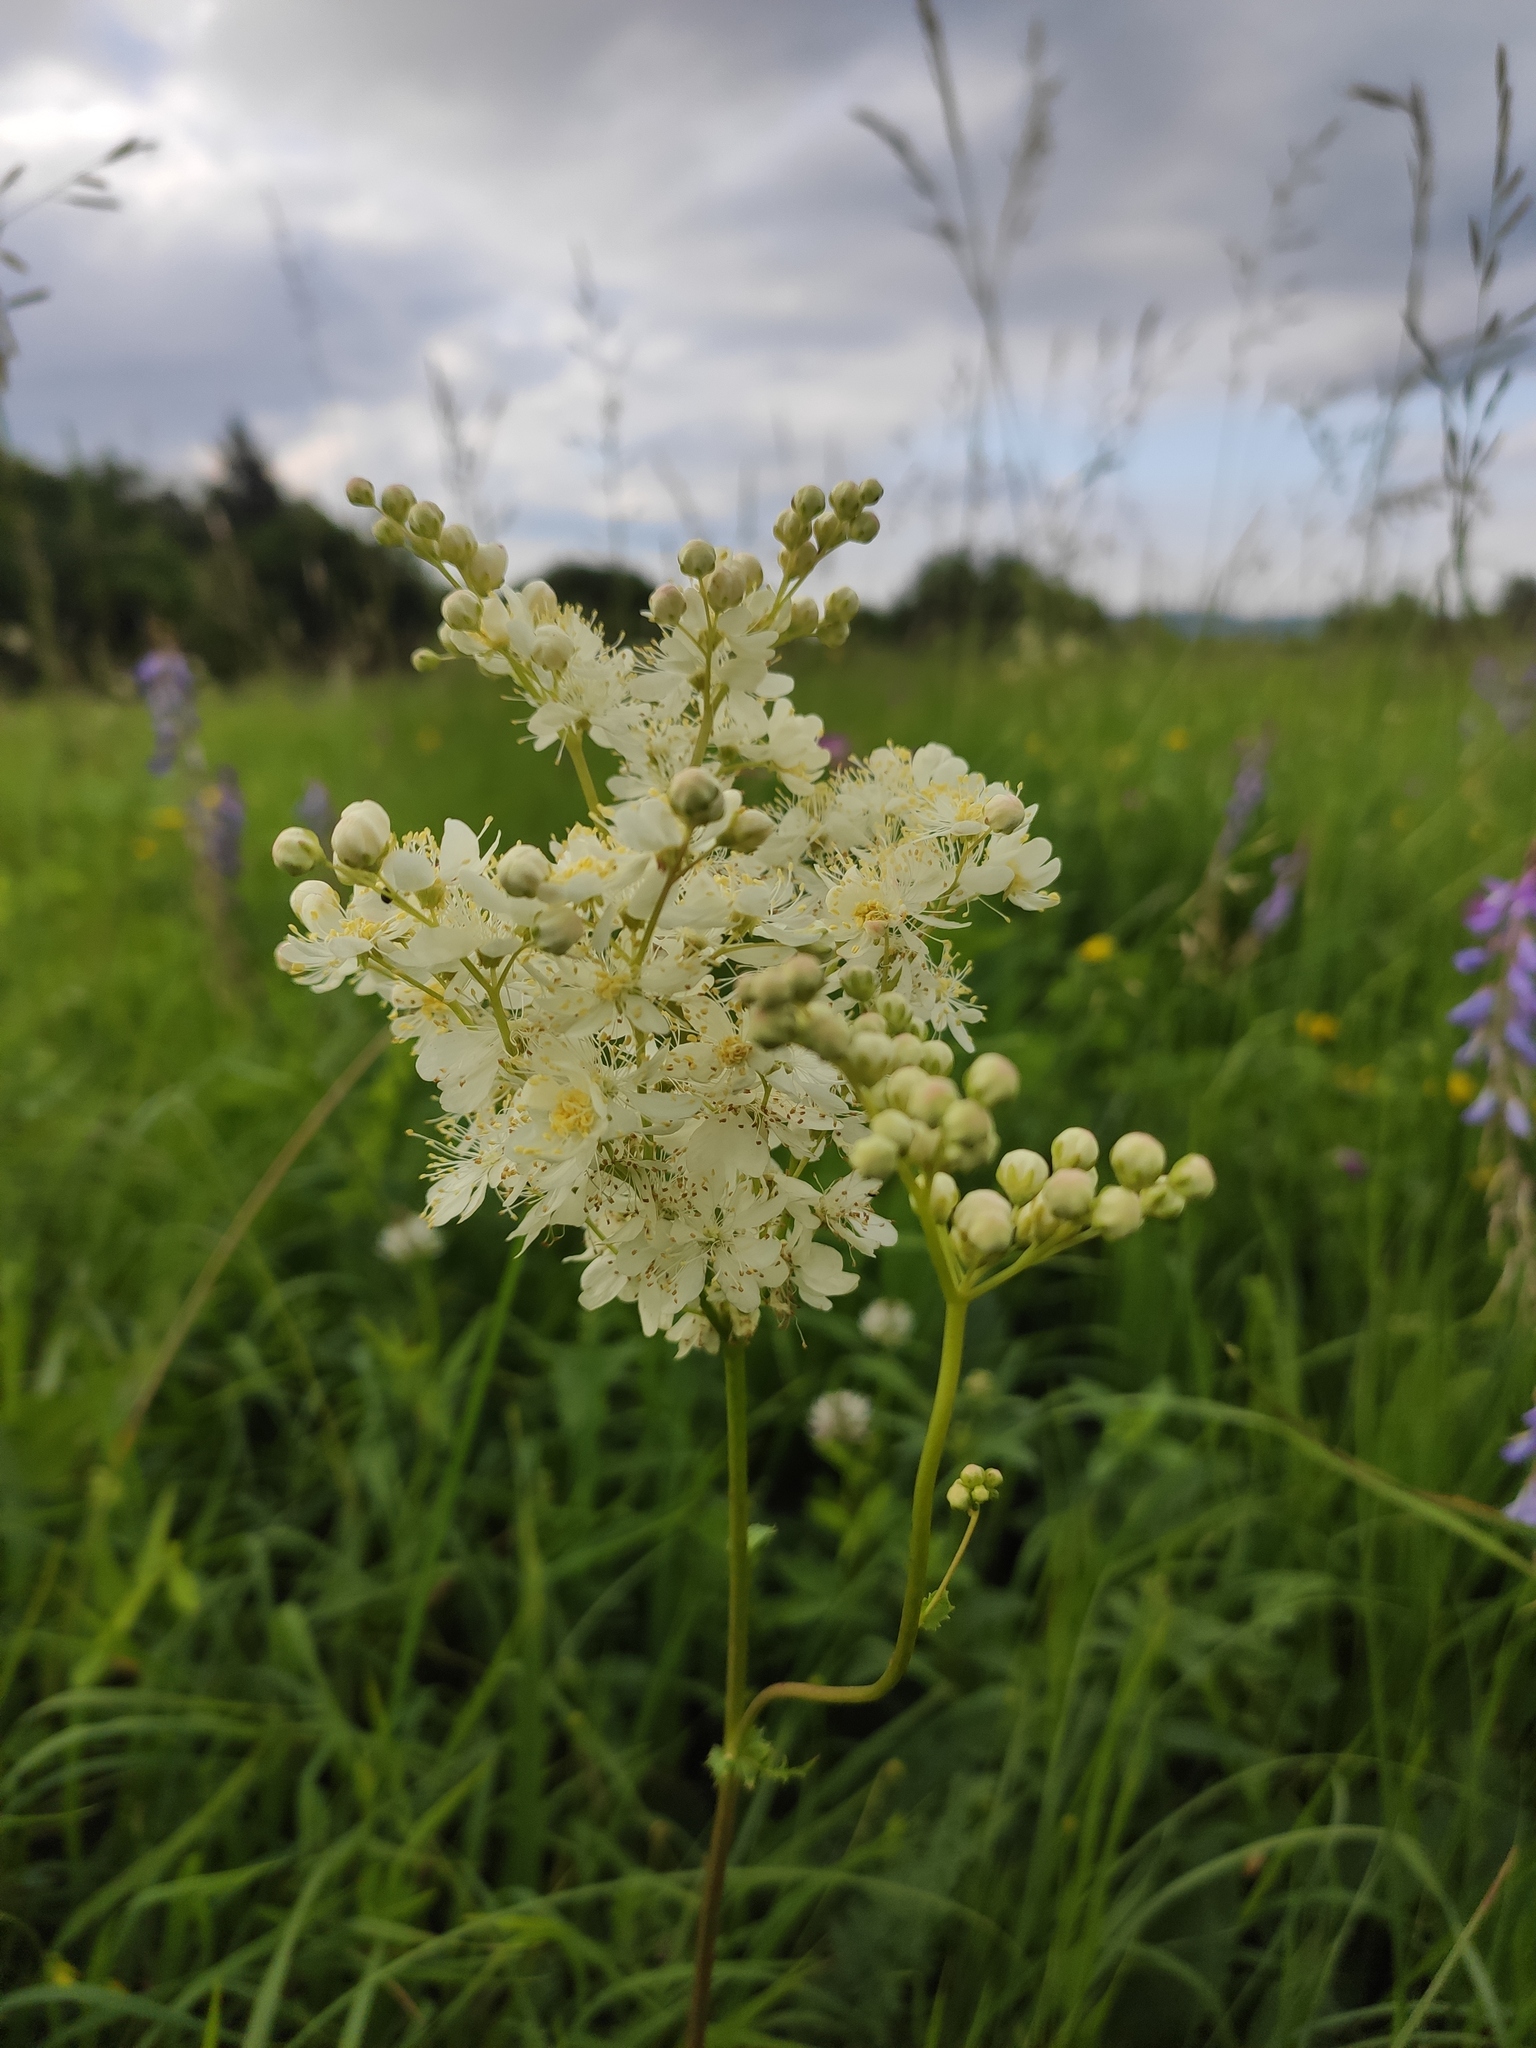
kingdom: Plantae
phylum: Tracheophyta
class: Magnoliopsida
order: Rosales
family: Rosaceae
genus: Filipendula
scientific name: Filipendula vulgaris
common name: Dropwort
